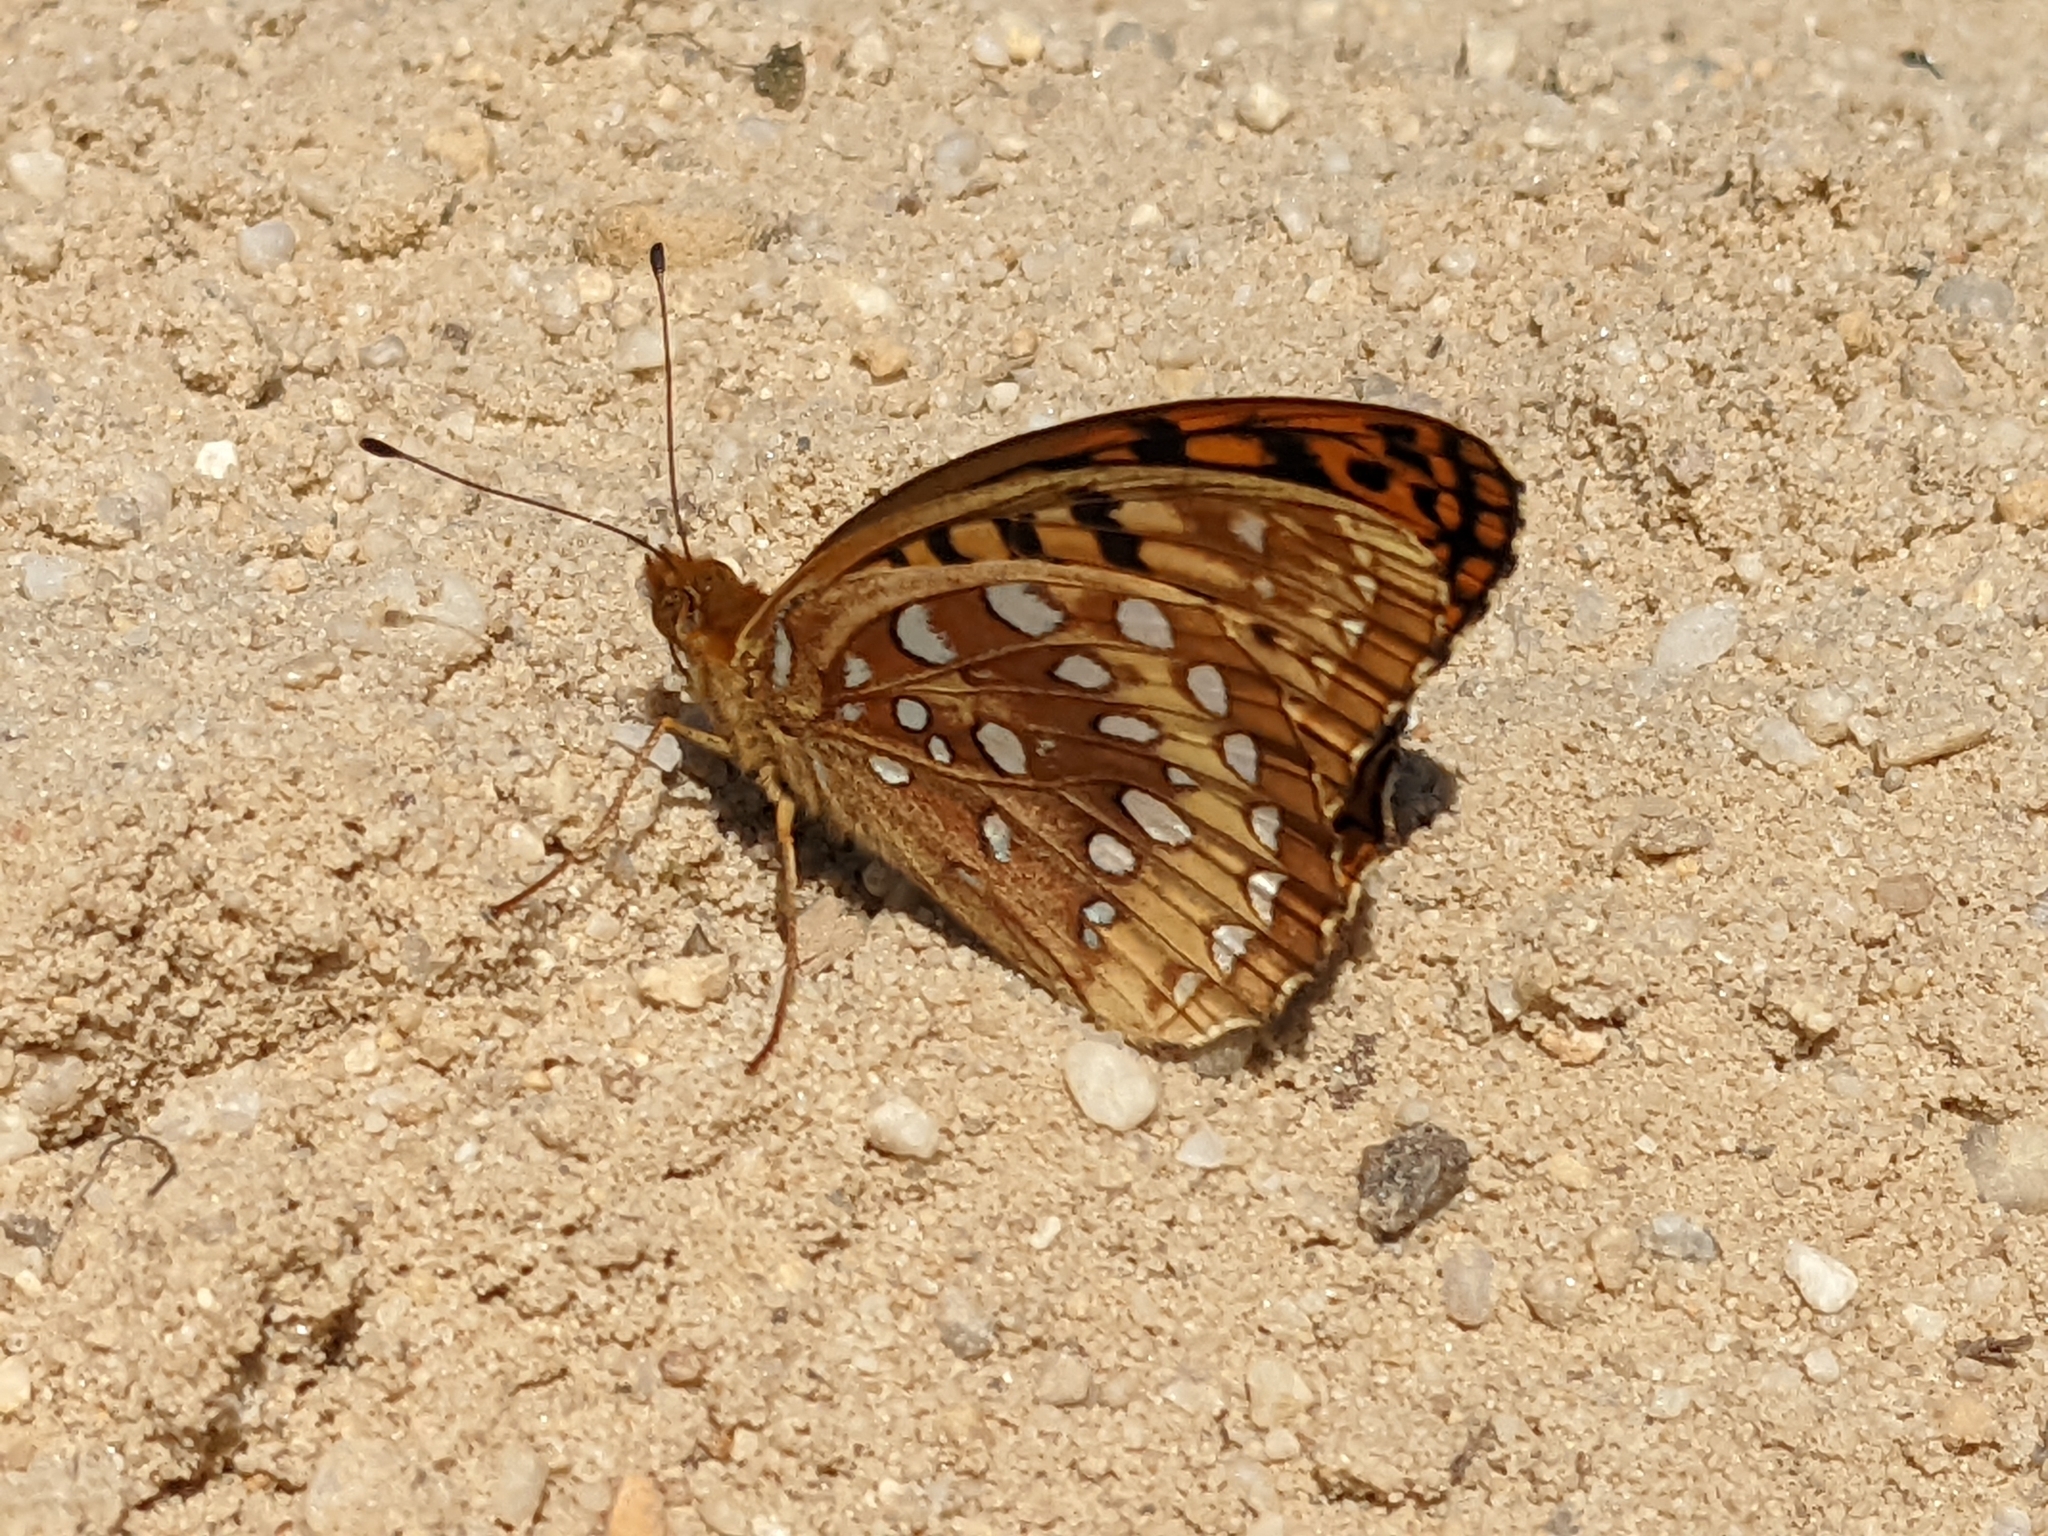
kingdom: Animalia
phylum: Arthropoda
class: Insecta
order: Lepidoptera
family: Nymphalidae
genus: Speyeria
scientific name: Speyeria cybele
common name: Great spangled fritillary
